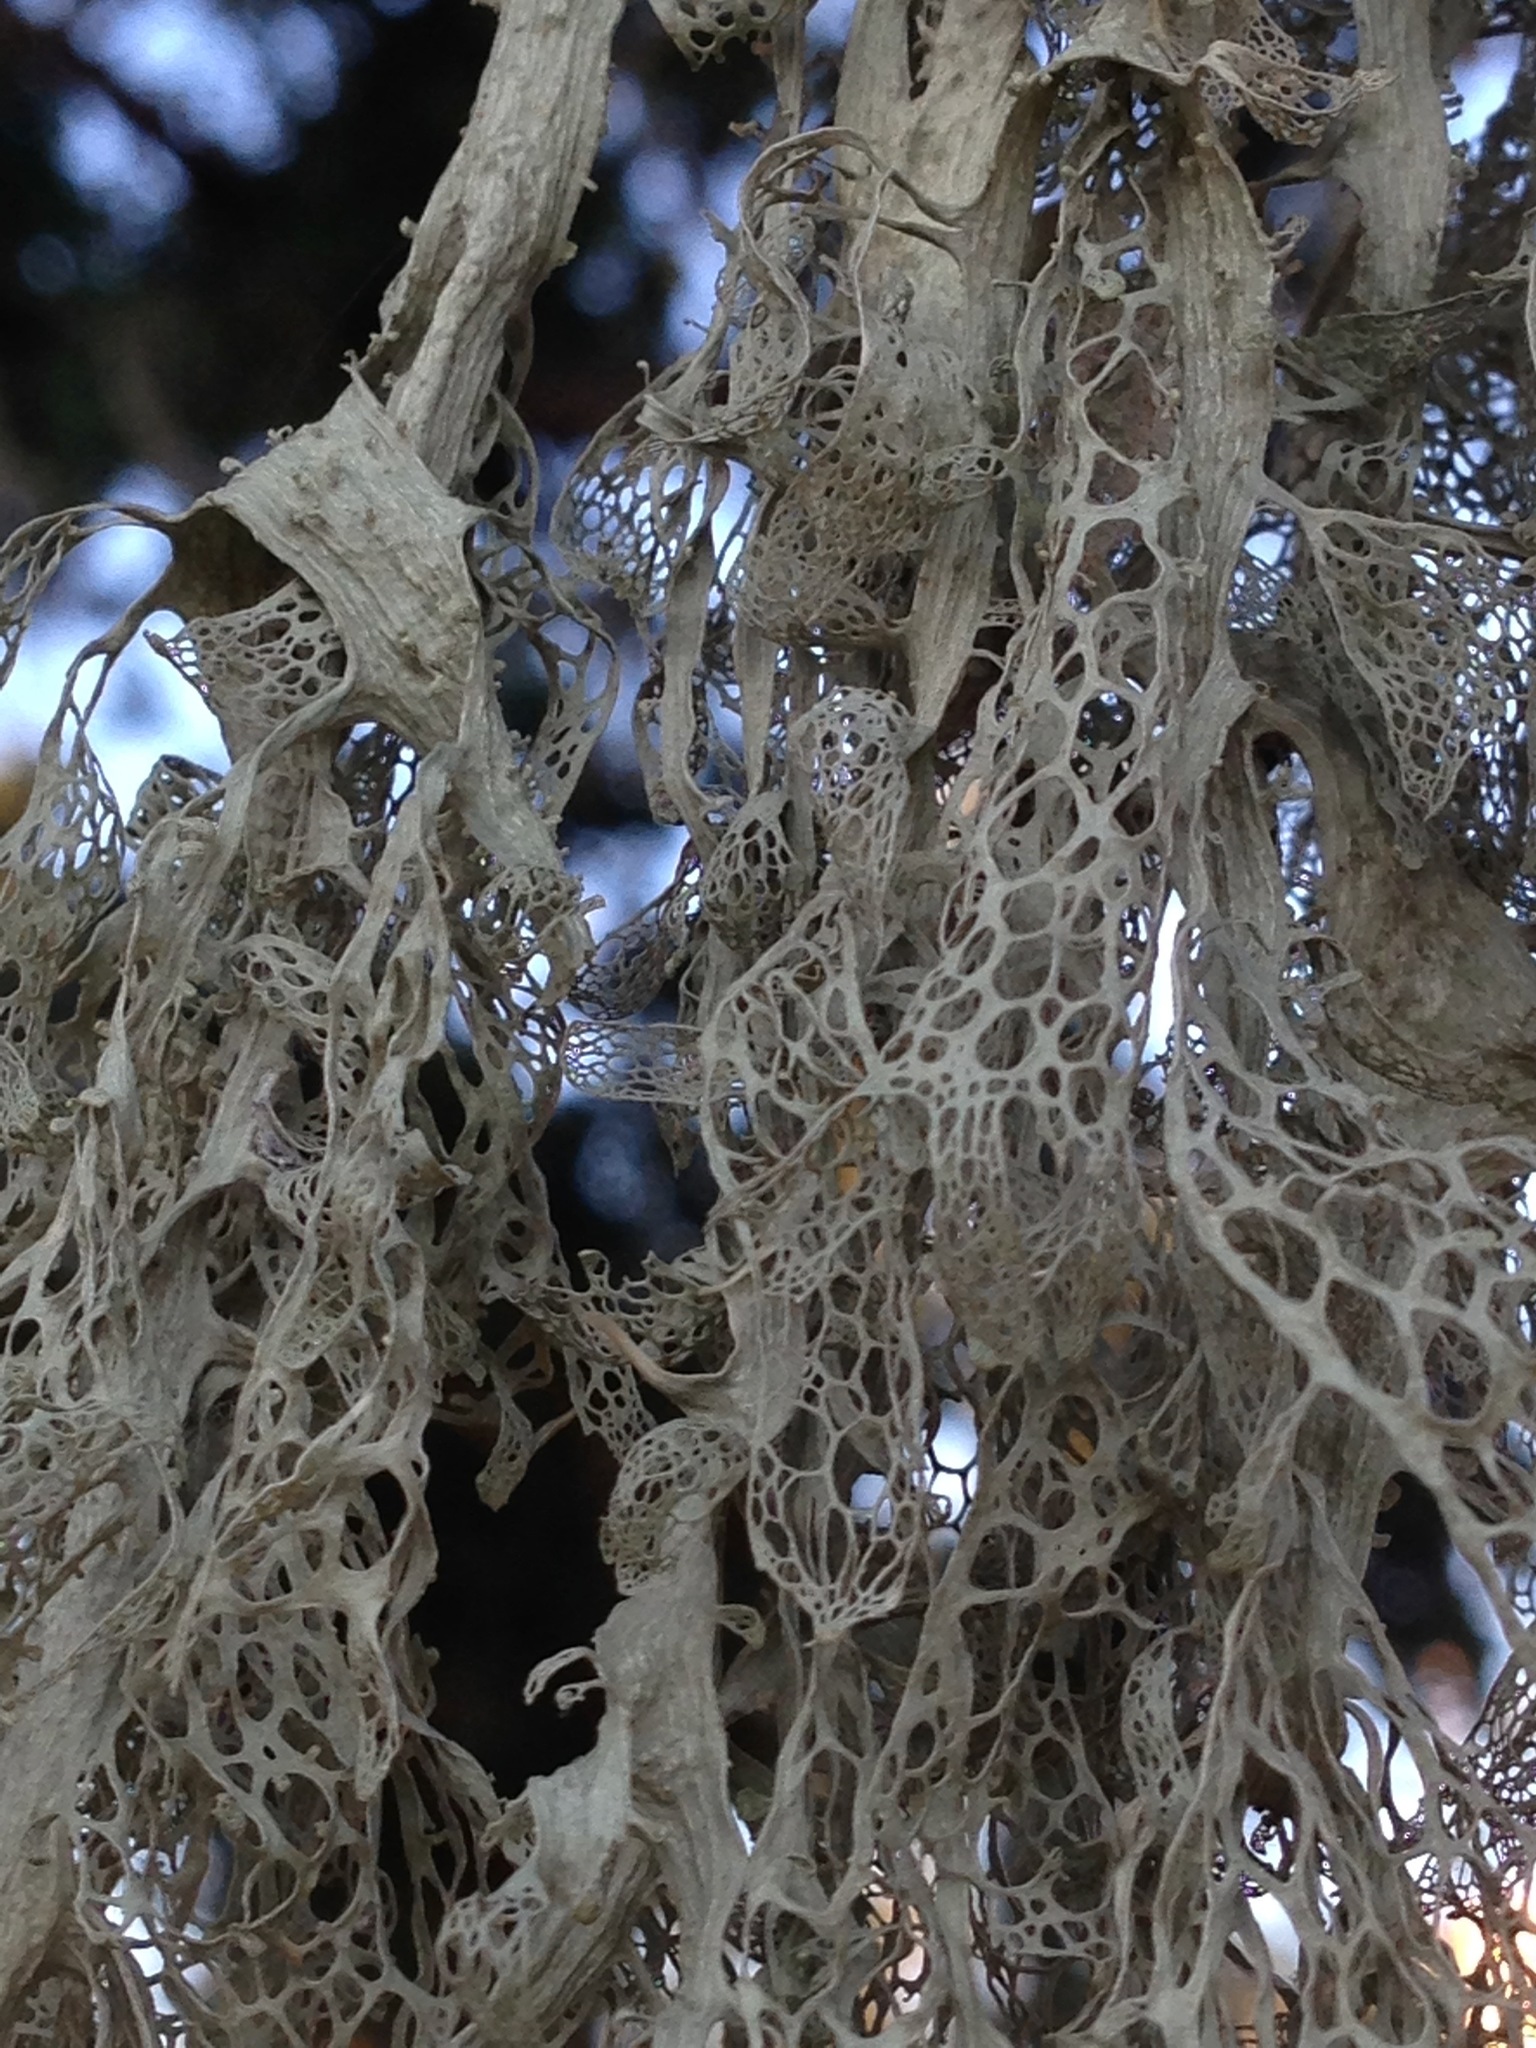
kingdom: Fungi
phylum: Ascomycota
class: Lecanoromycetes
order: Lecanorales
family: Ramalinaceae
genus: Ramalina
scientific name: Ramalina menziesii
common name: Lace lichen
